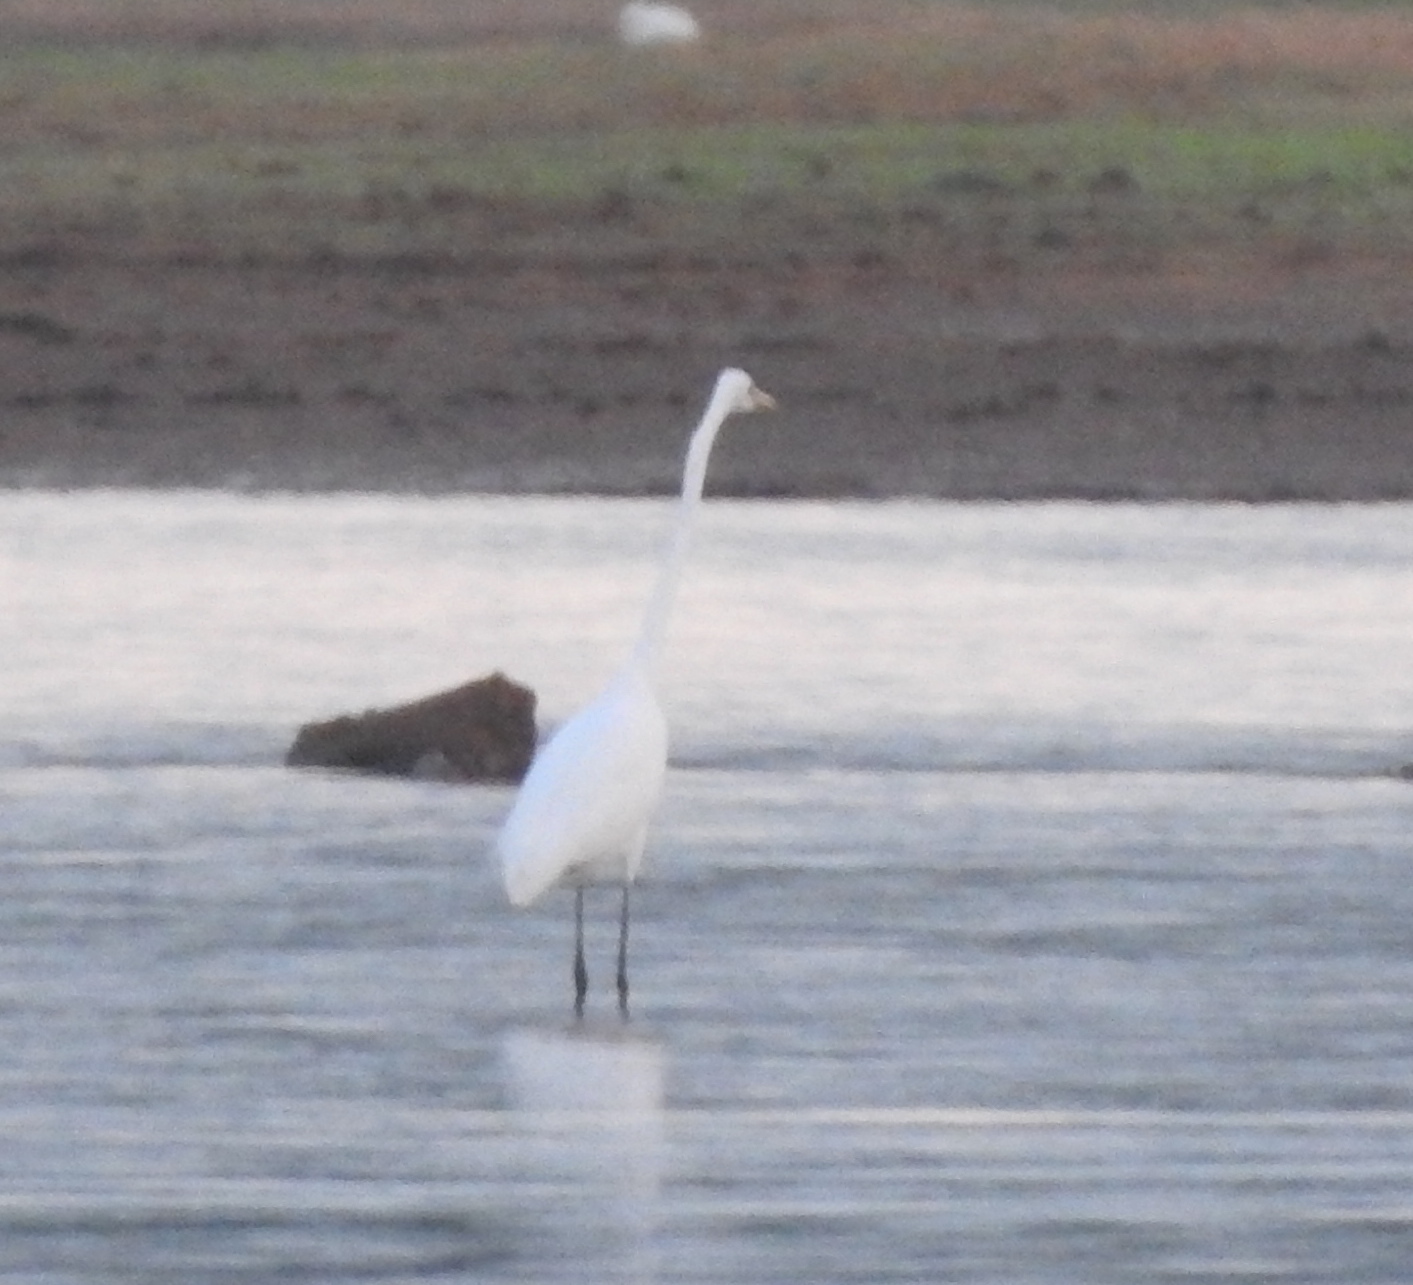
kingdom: Animalia
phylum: Chordata
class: Aves
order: Pelecaniformes
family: Ardeidae
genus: Ardea
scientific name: Ardea alba
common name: Great egret
